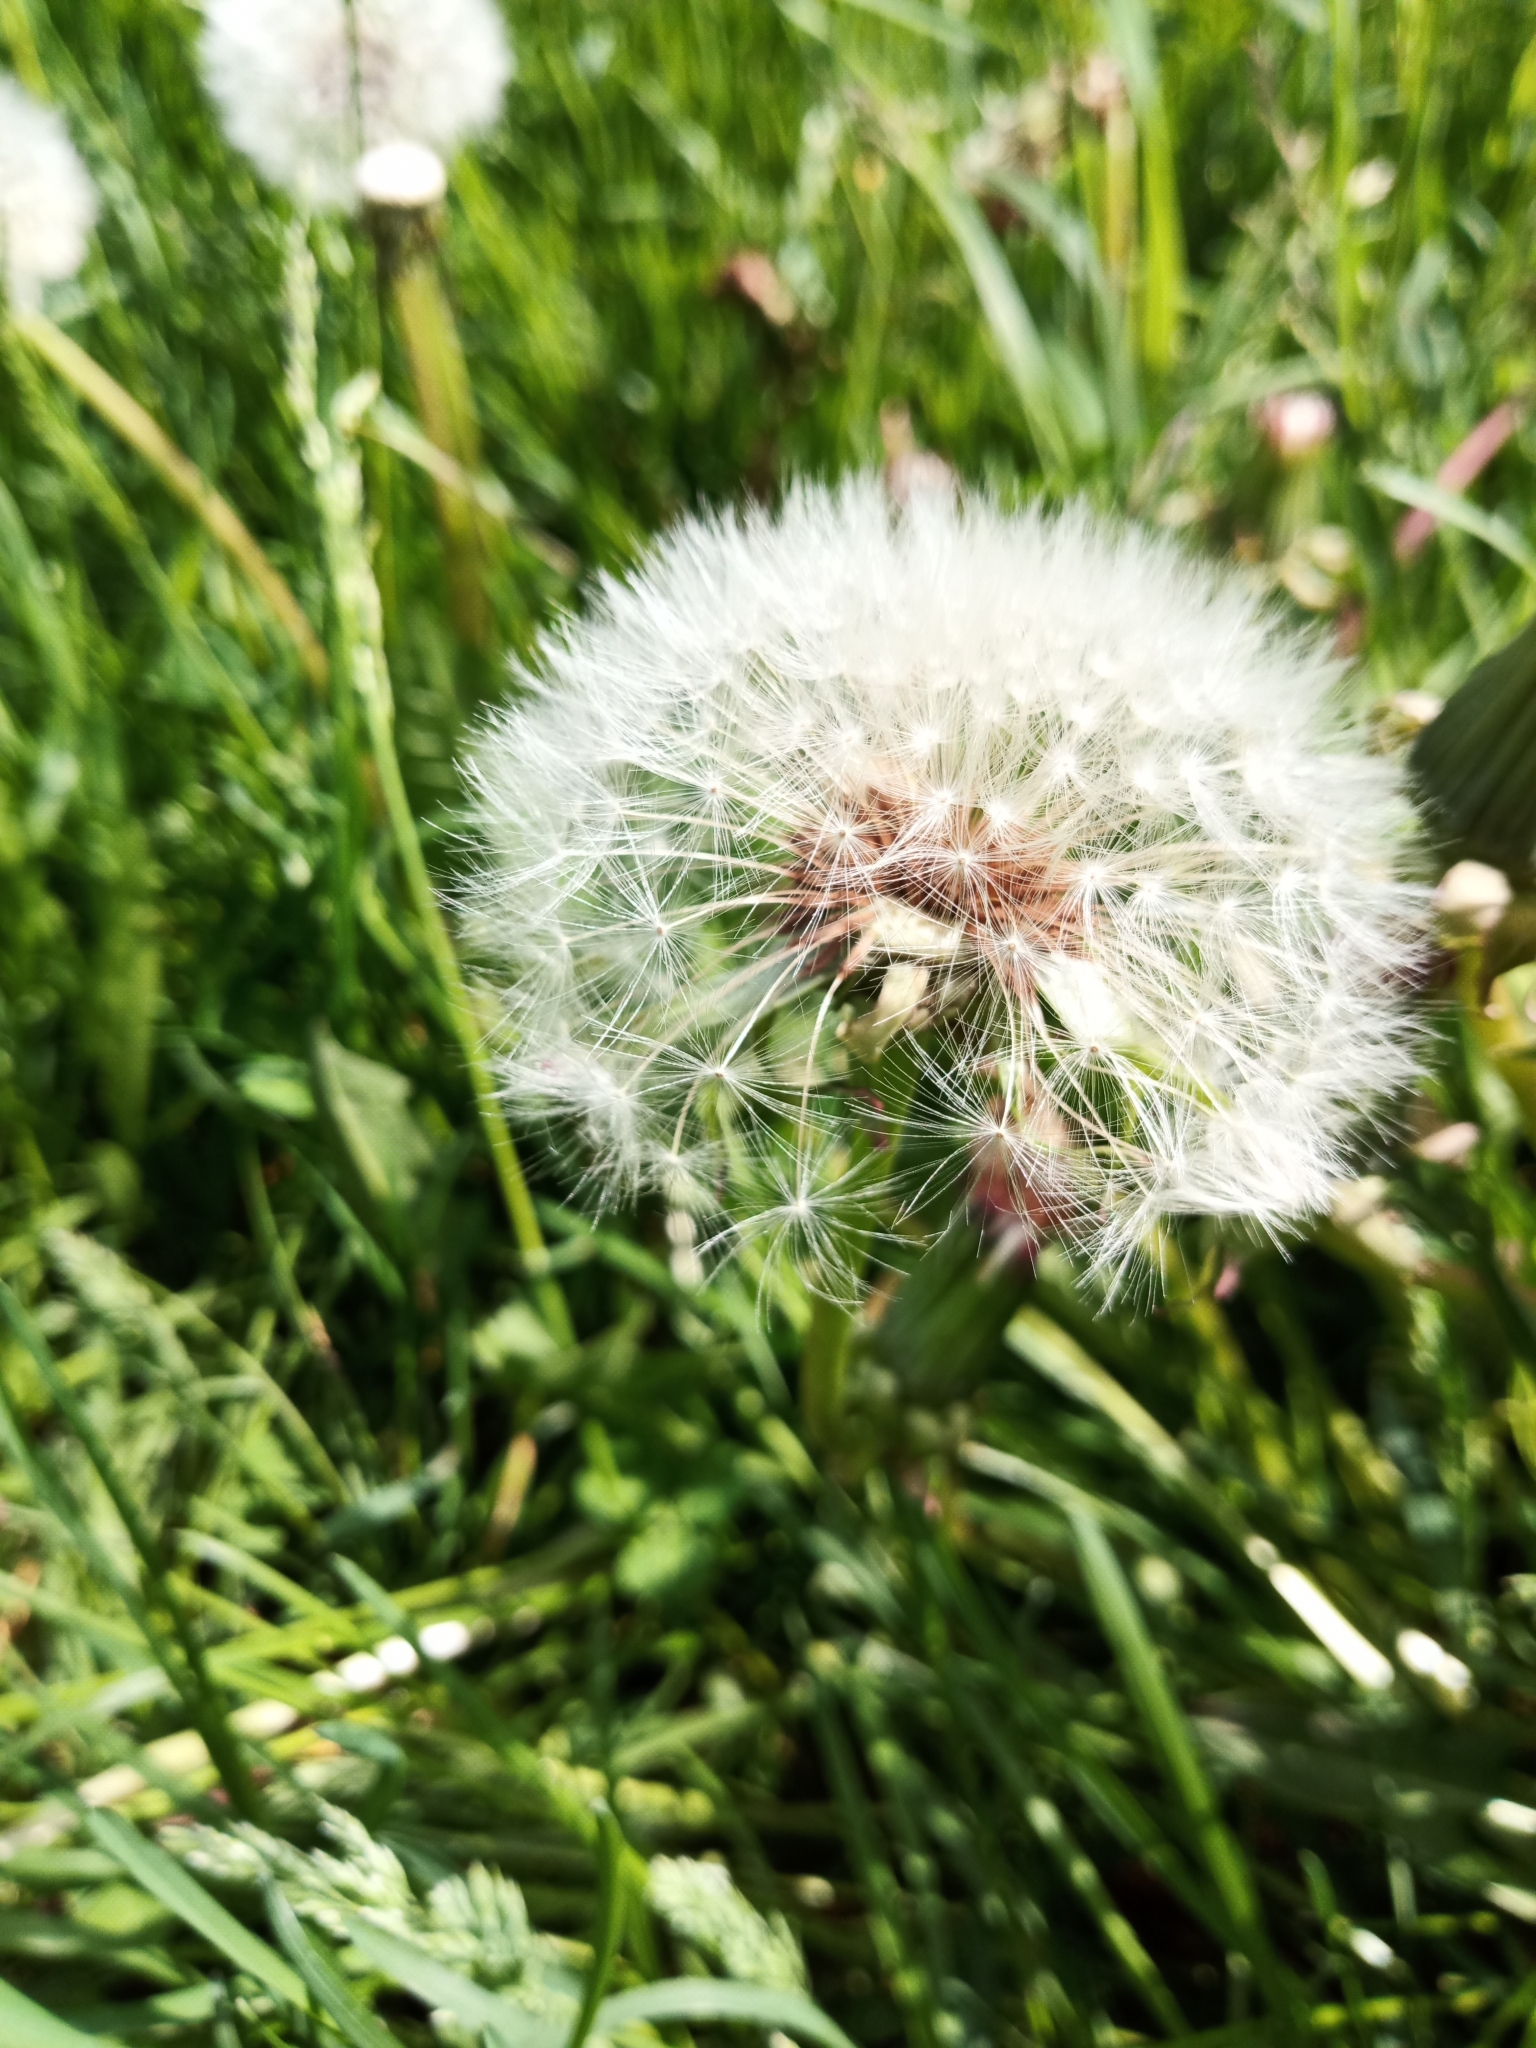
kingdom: Plantae
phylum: Tracheophyta
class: Magnoliopsida
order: Asterales
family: Asteraceae
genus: Taraxacum
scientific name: Taraxacum officinale
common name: Common dandelion
